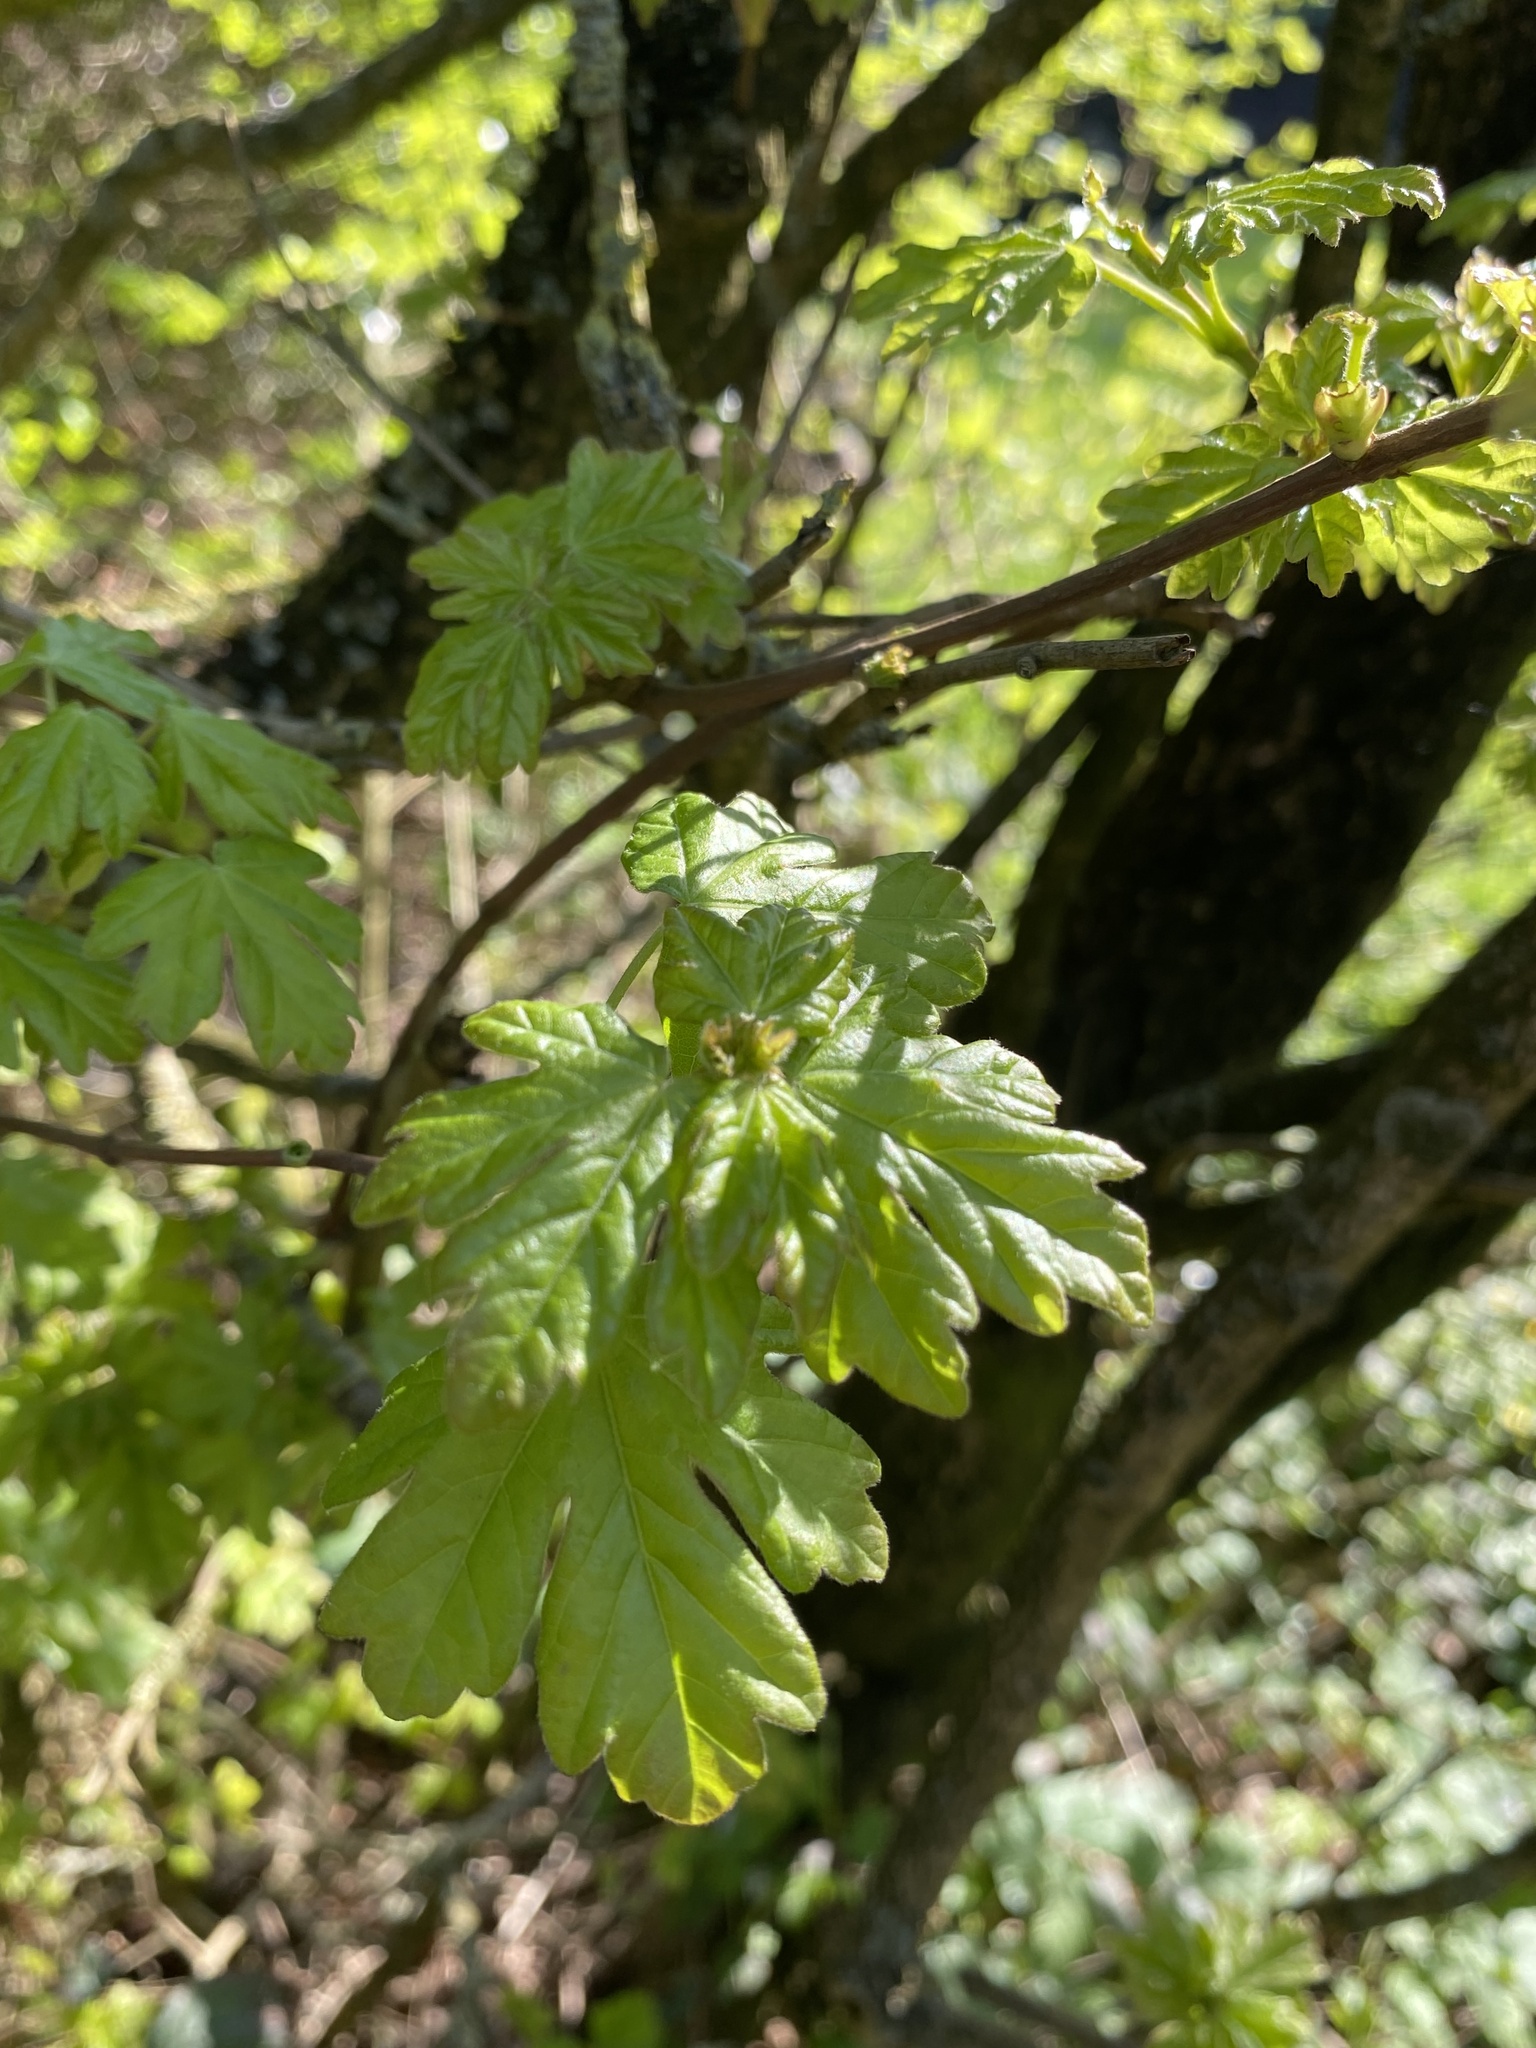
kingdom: Plantae
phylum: Tracheophyta
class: Magnoliopsida
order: Sapindales
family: Sapindaceae
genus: Acer
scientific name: Acer campestre
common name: Field maple
